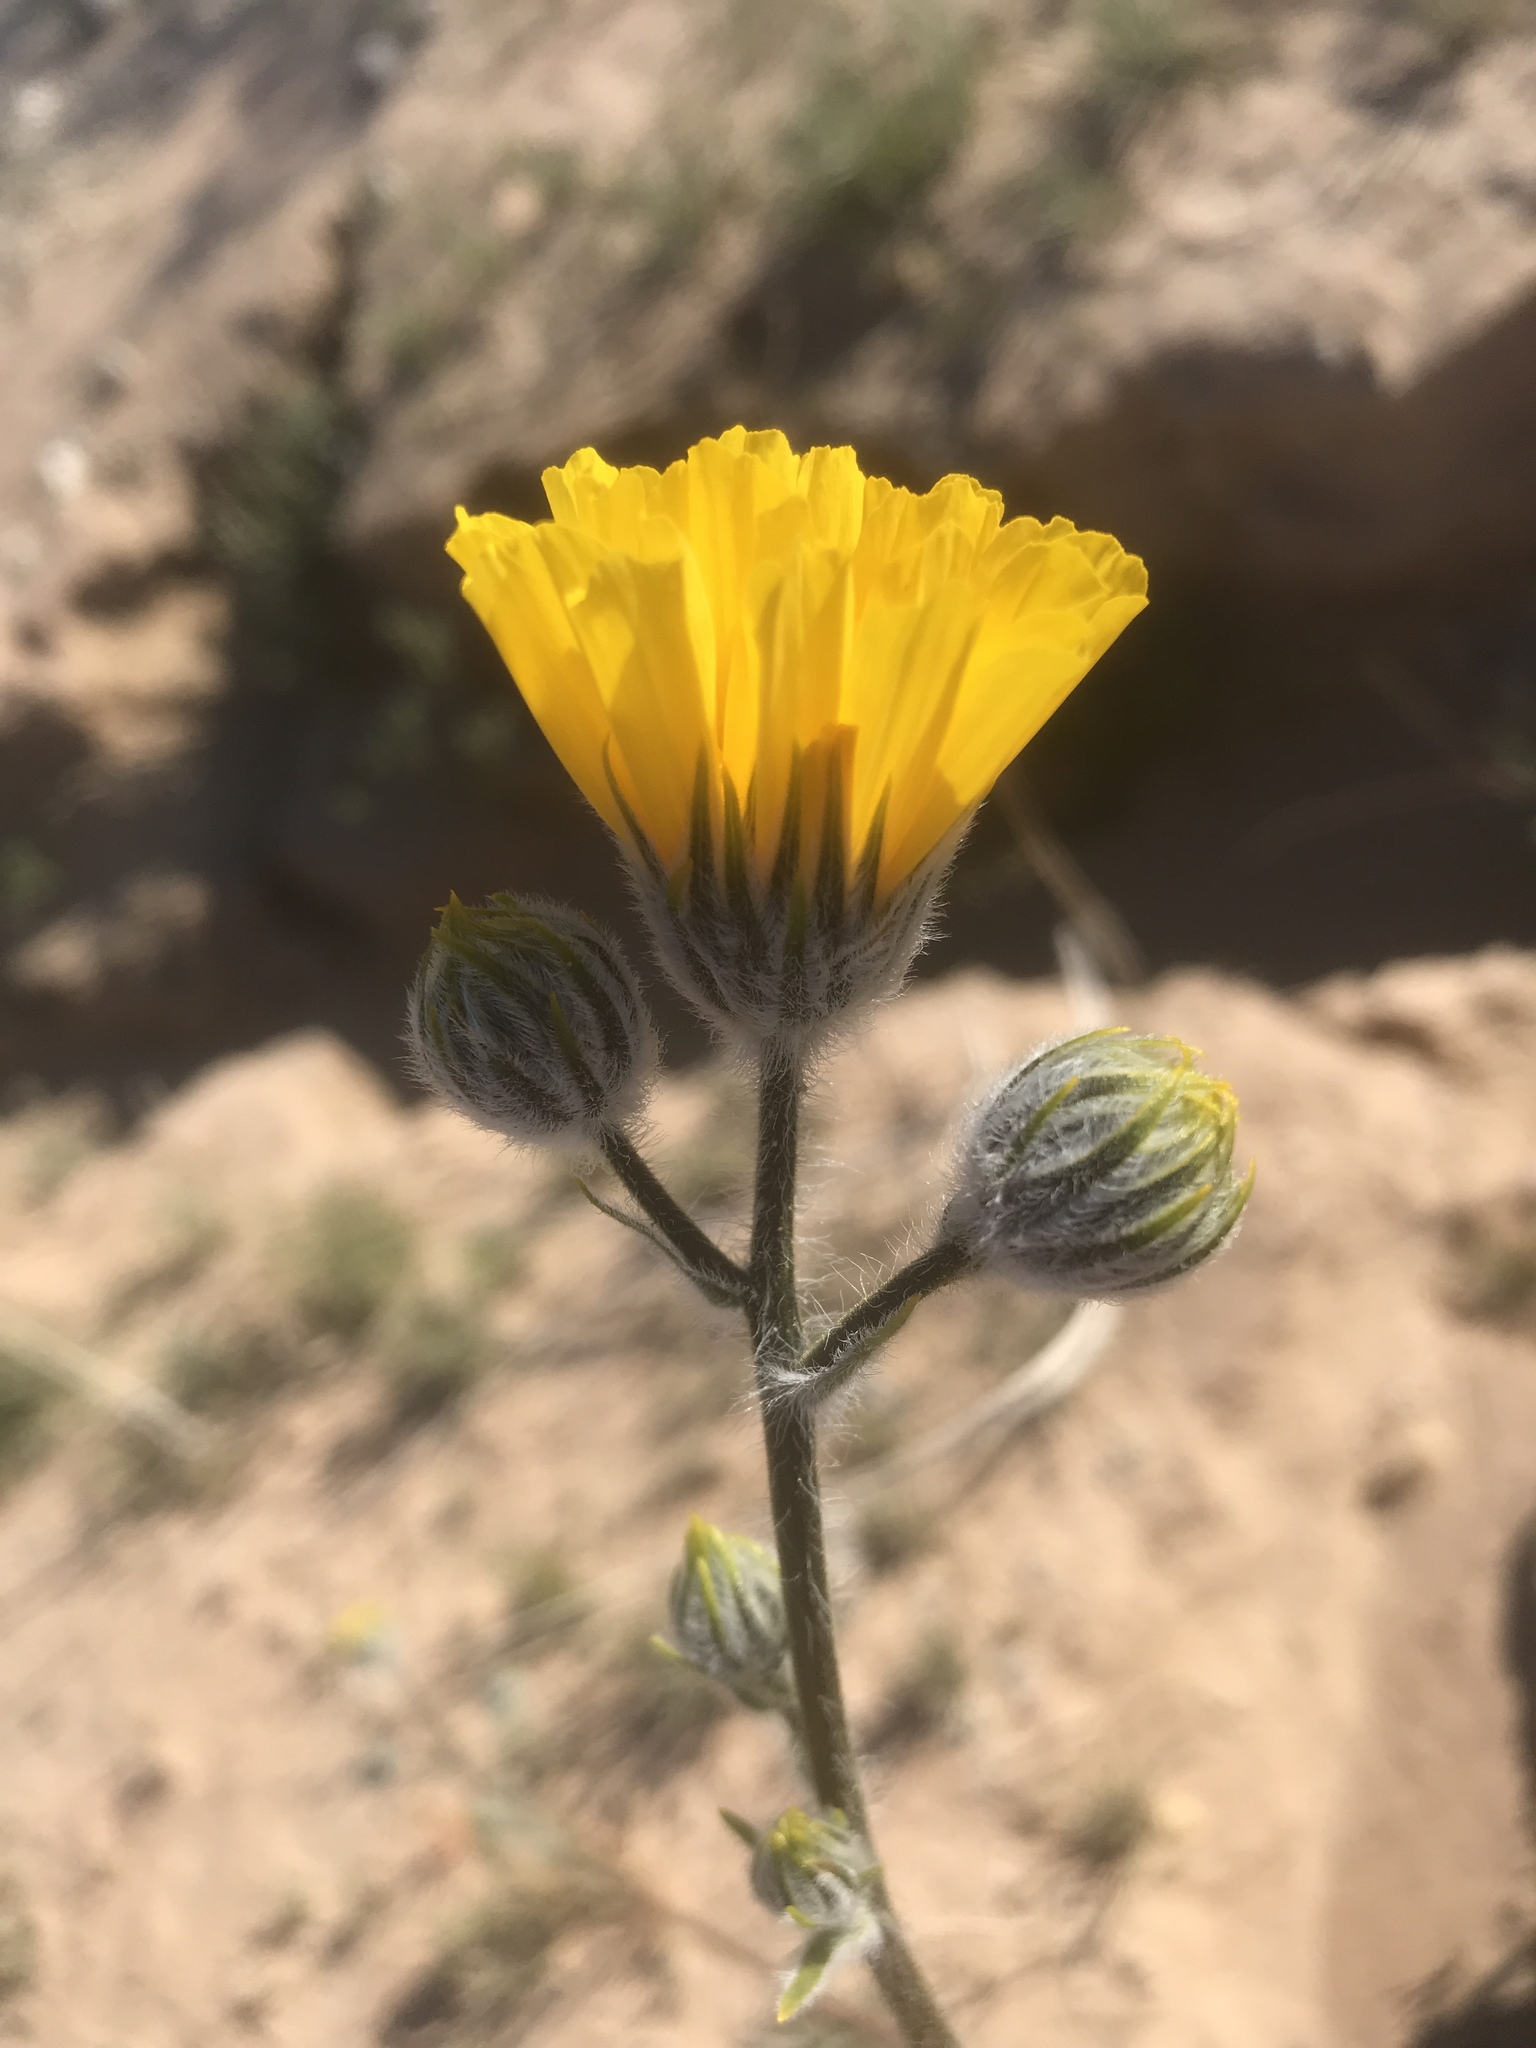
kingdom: Plantae
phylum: Tracheophyta
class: Magnoliopsida
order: Asterales
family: Asteraceae
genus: Geraea
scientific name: Geraea canescens
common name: Desert-gold
